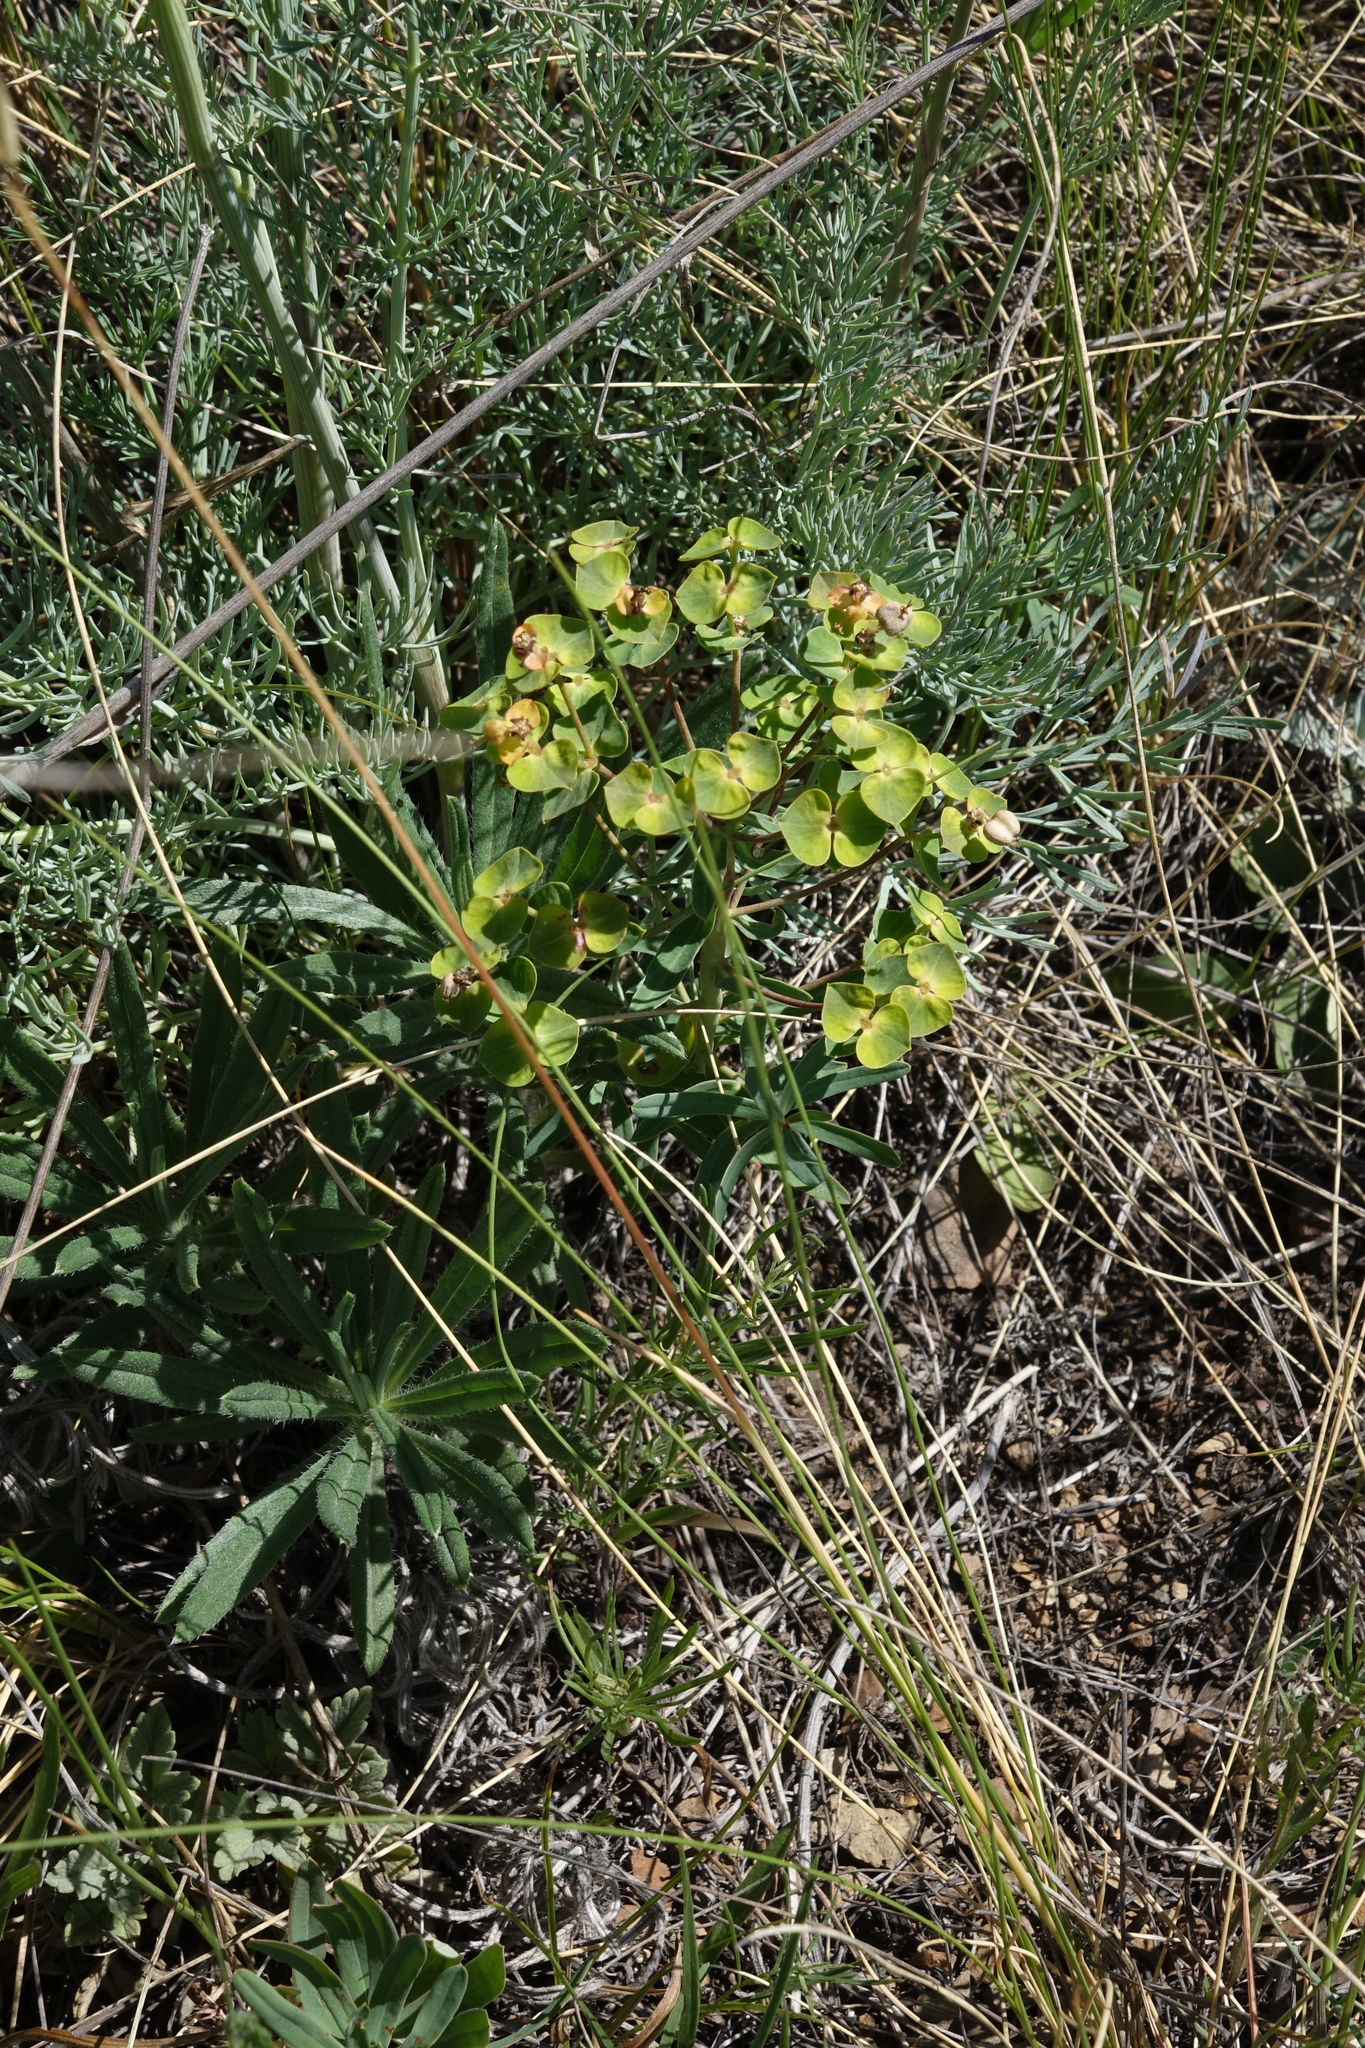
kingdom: Plantae
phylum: Tracheophyta
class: Magnoliopsida
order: Malpighiales
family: Euphorbiaceae
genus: Euphorbia
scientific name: Euphorbia virgata
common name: Leafy spurge
